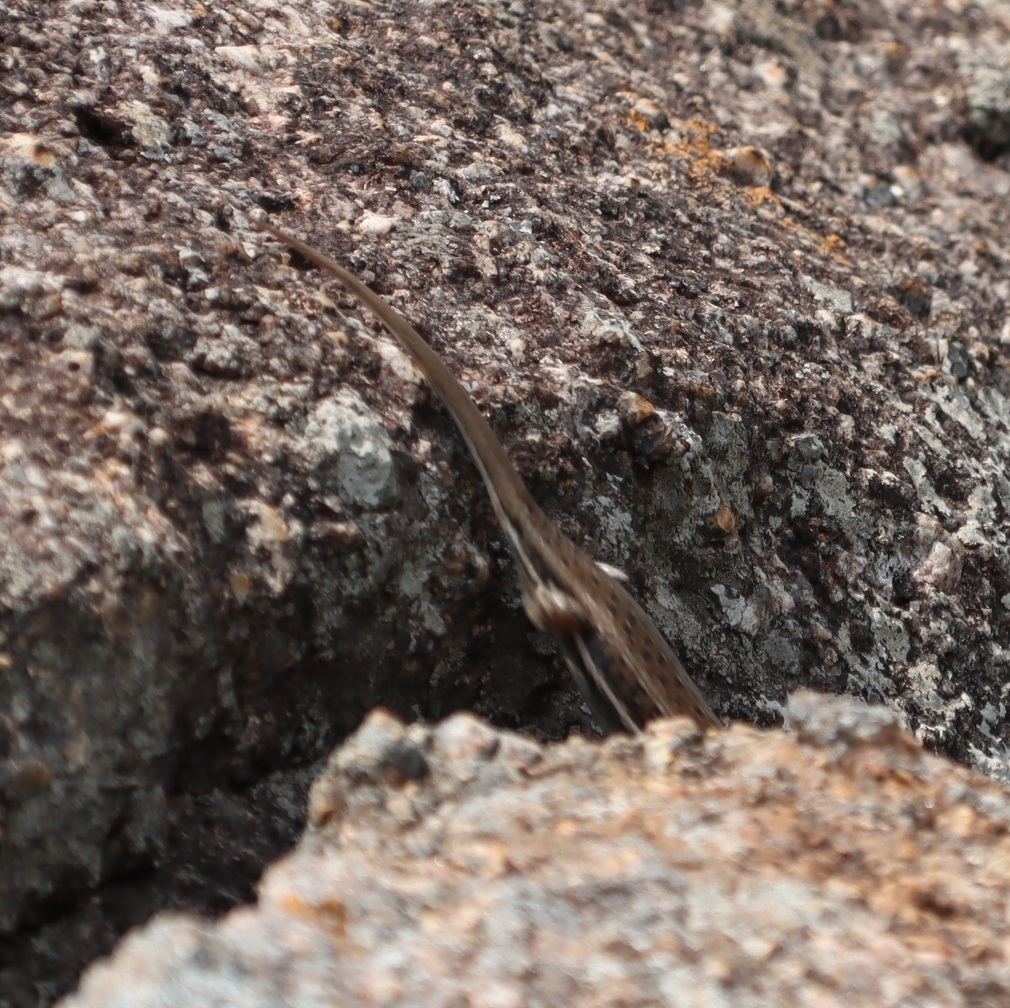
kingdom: Animalia
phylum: Chordata
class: Squamata
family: Scincidae
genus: Trachylepis
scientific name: Trachylepis varia
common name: Eastern variable skink
